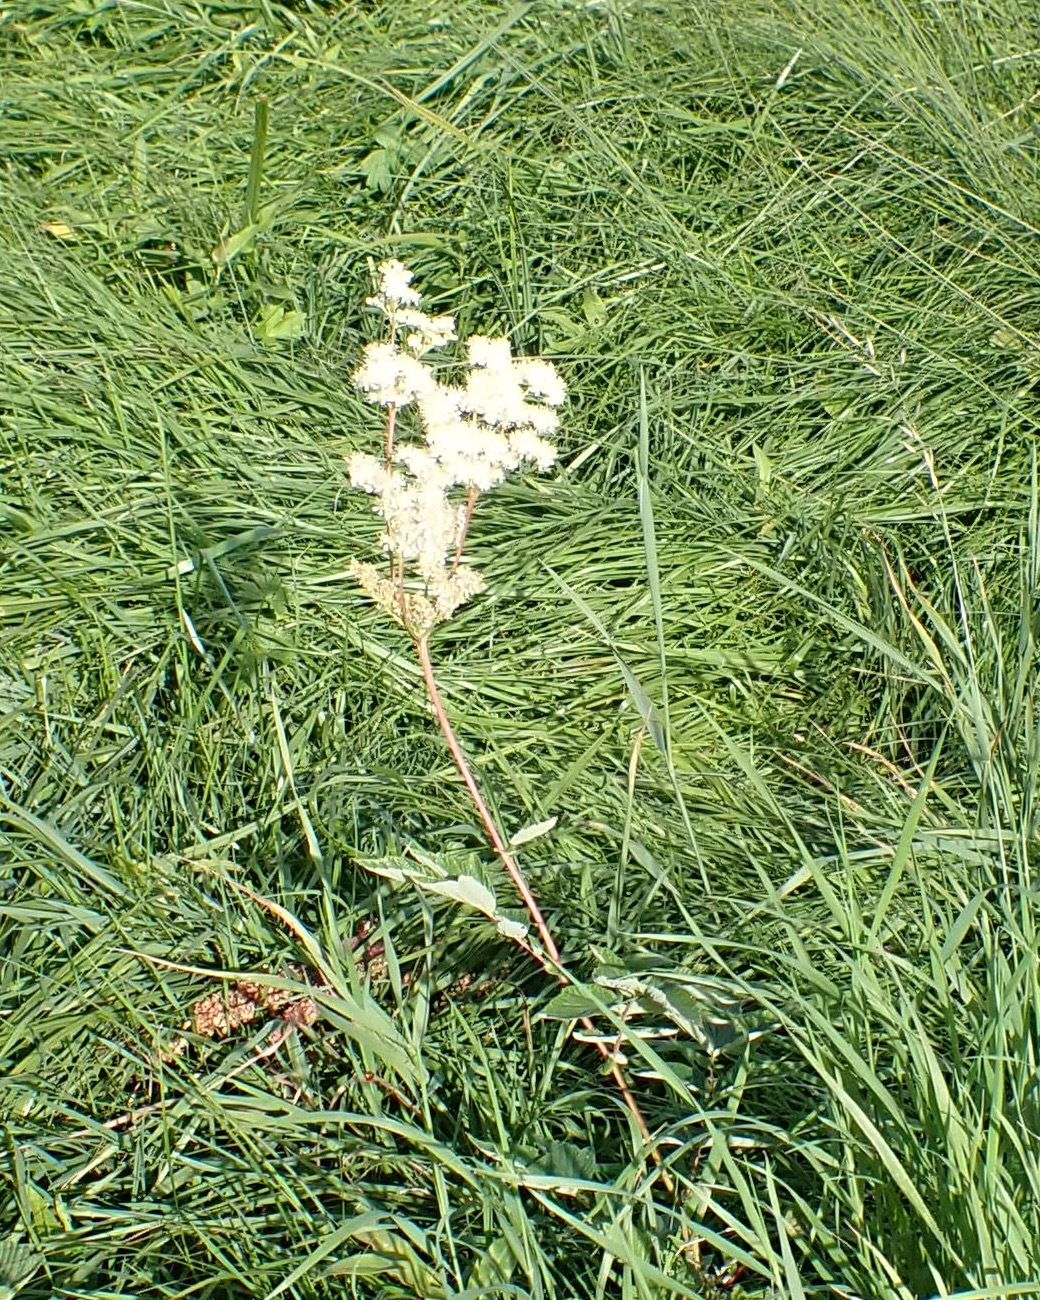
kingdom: Plantae
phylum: Tracheophyta
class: Magnoliopsida
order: Rosales
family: Rosaceae
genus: Filipendula
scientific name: Filipendula ulmaria
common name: Meadowsweet
